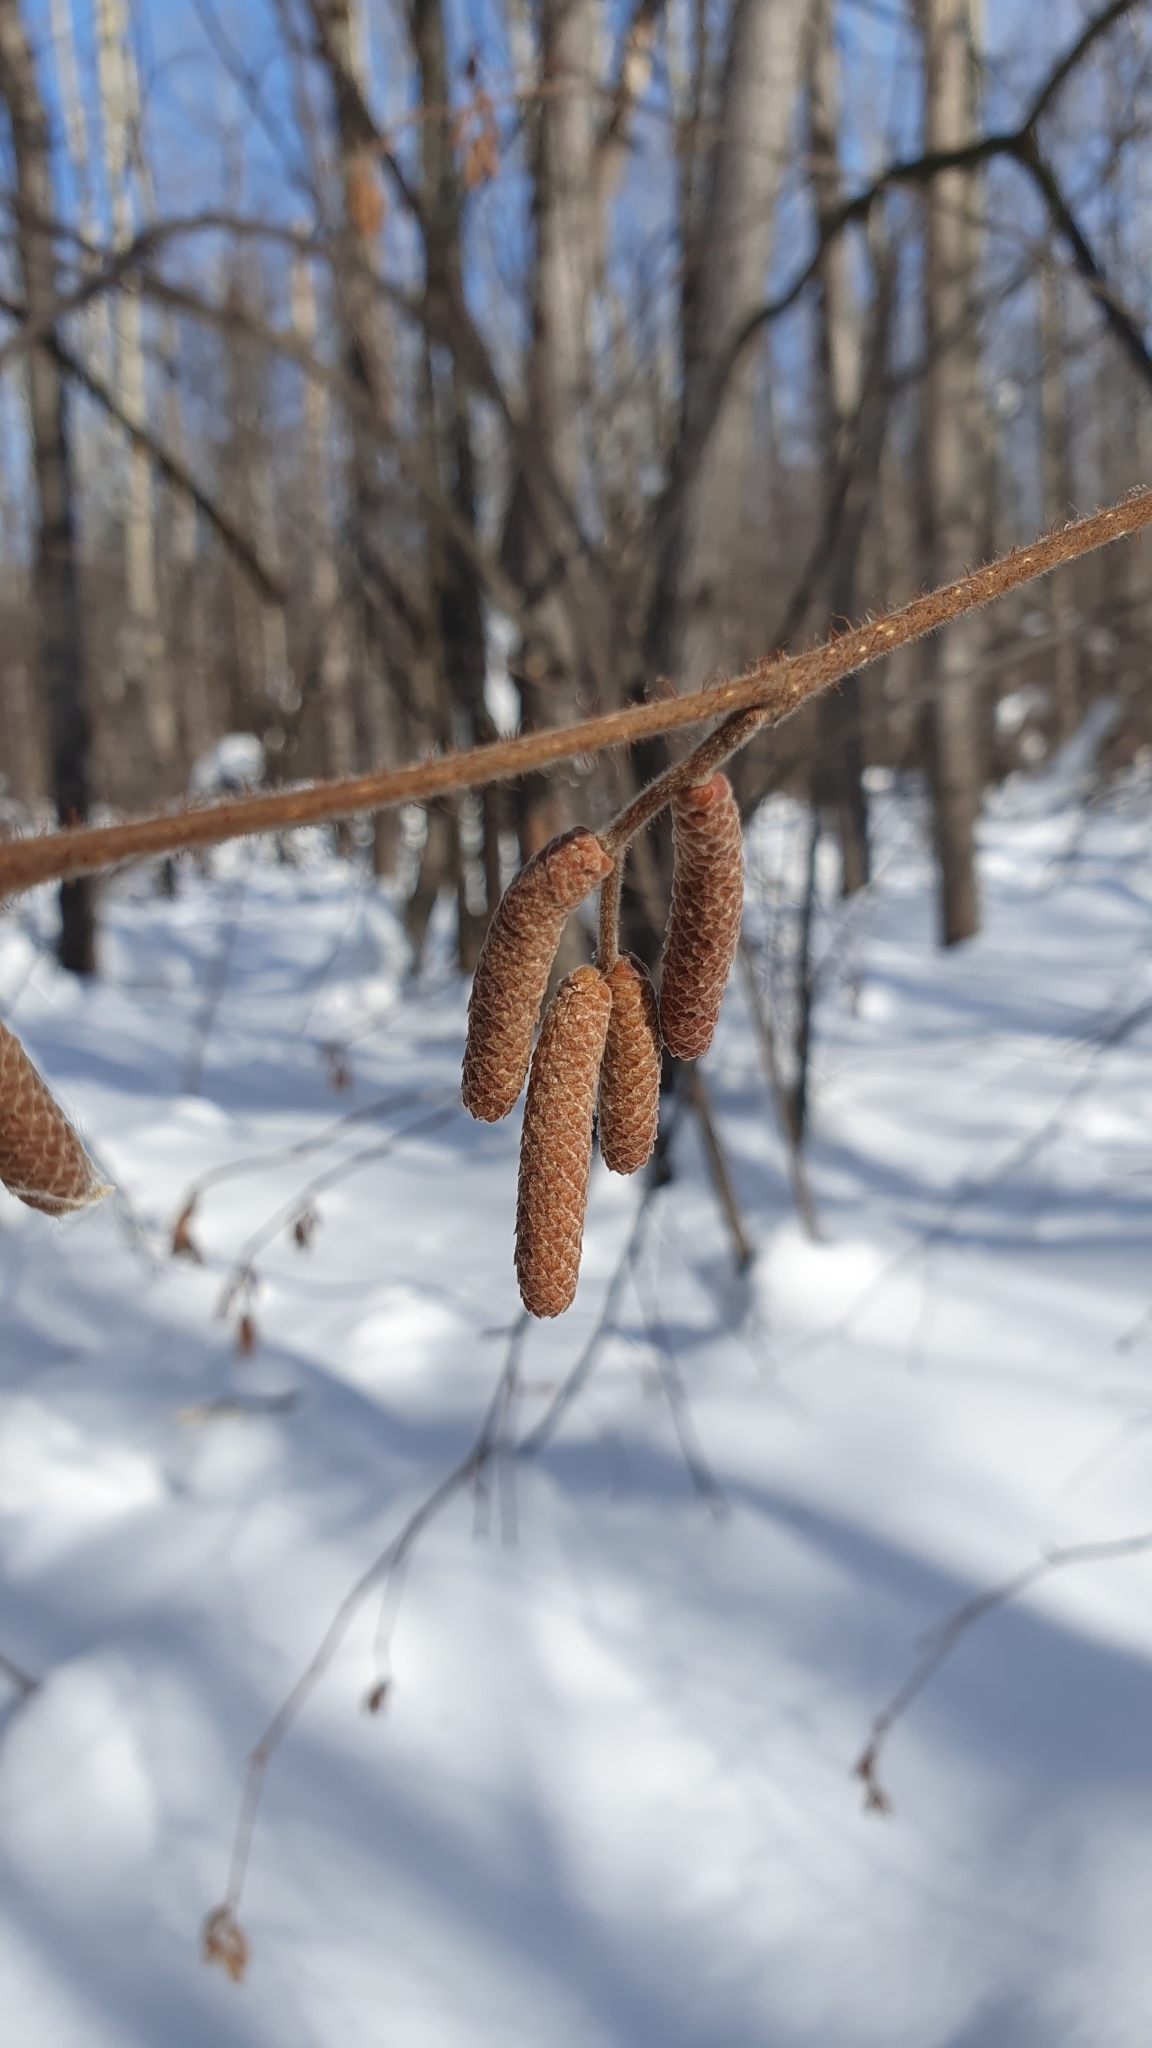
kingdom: Plantae
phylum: Tracheophyta
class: Magnoliopsida
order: Fagales
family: Betulaceae
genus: Corylus
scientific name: Corylus avellana
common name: European hazel
